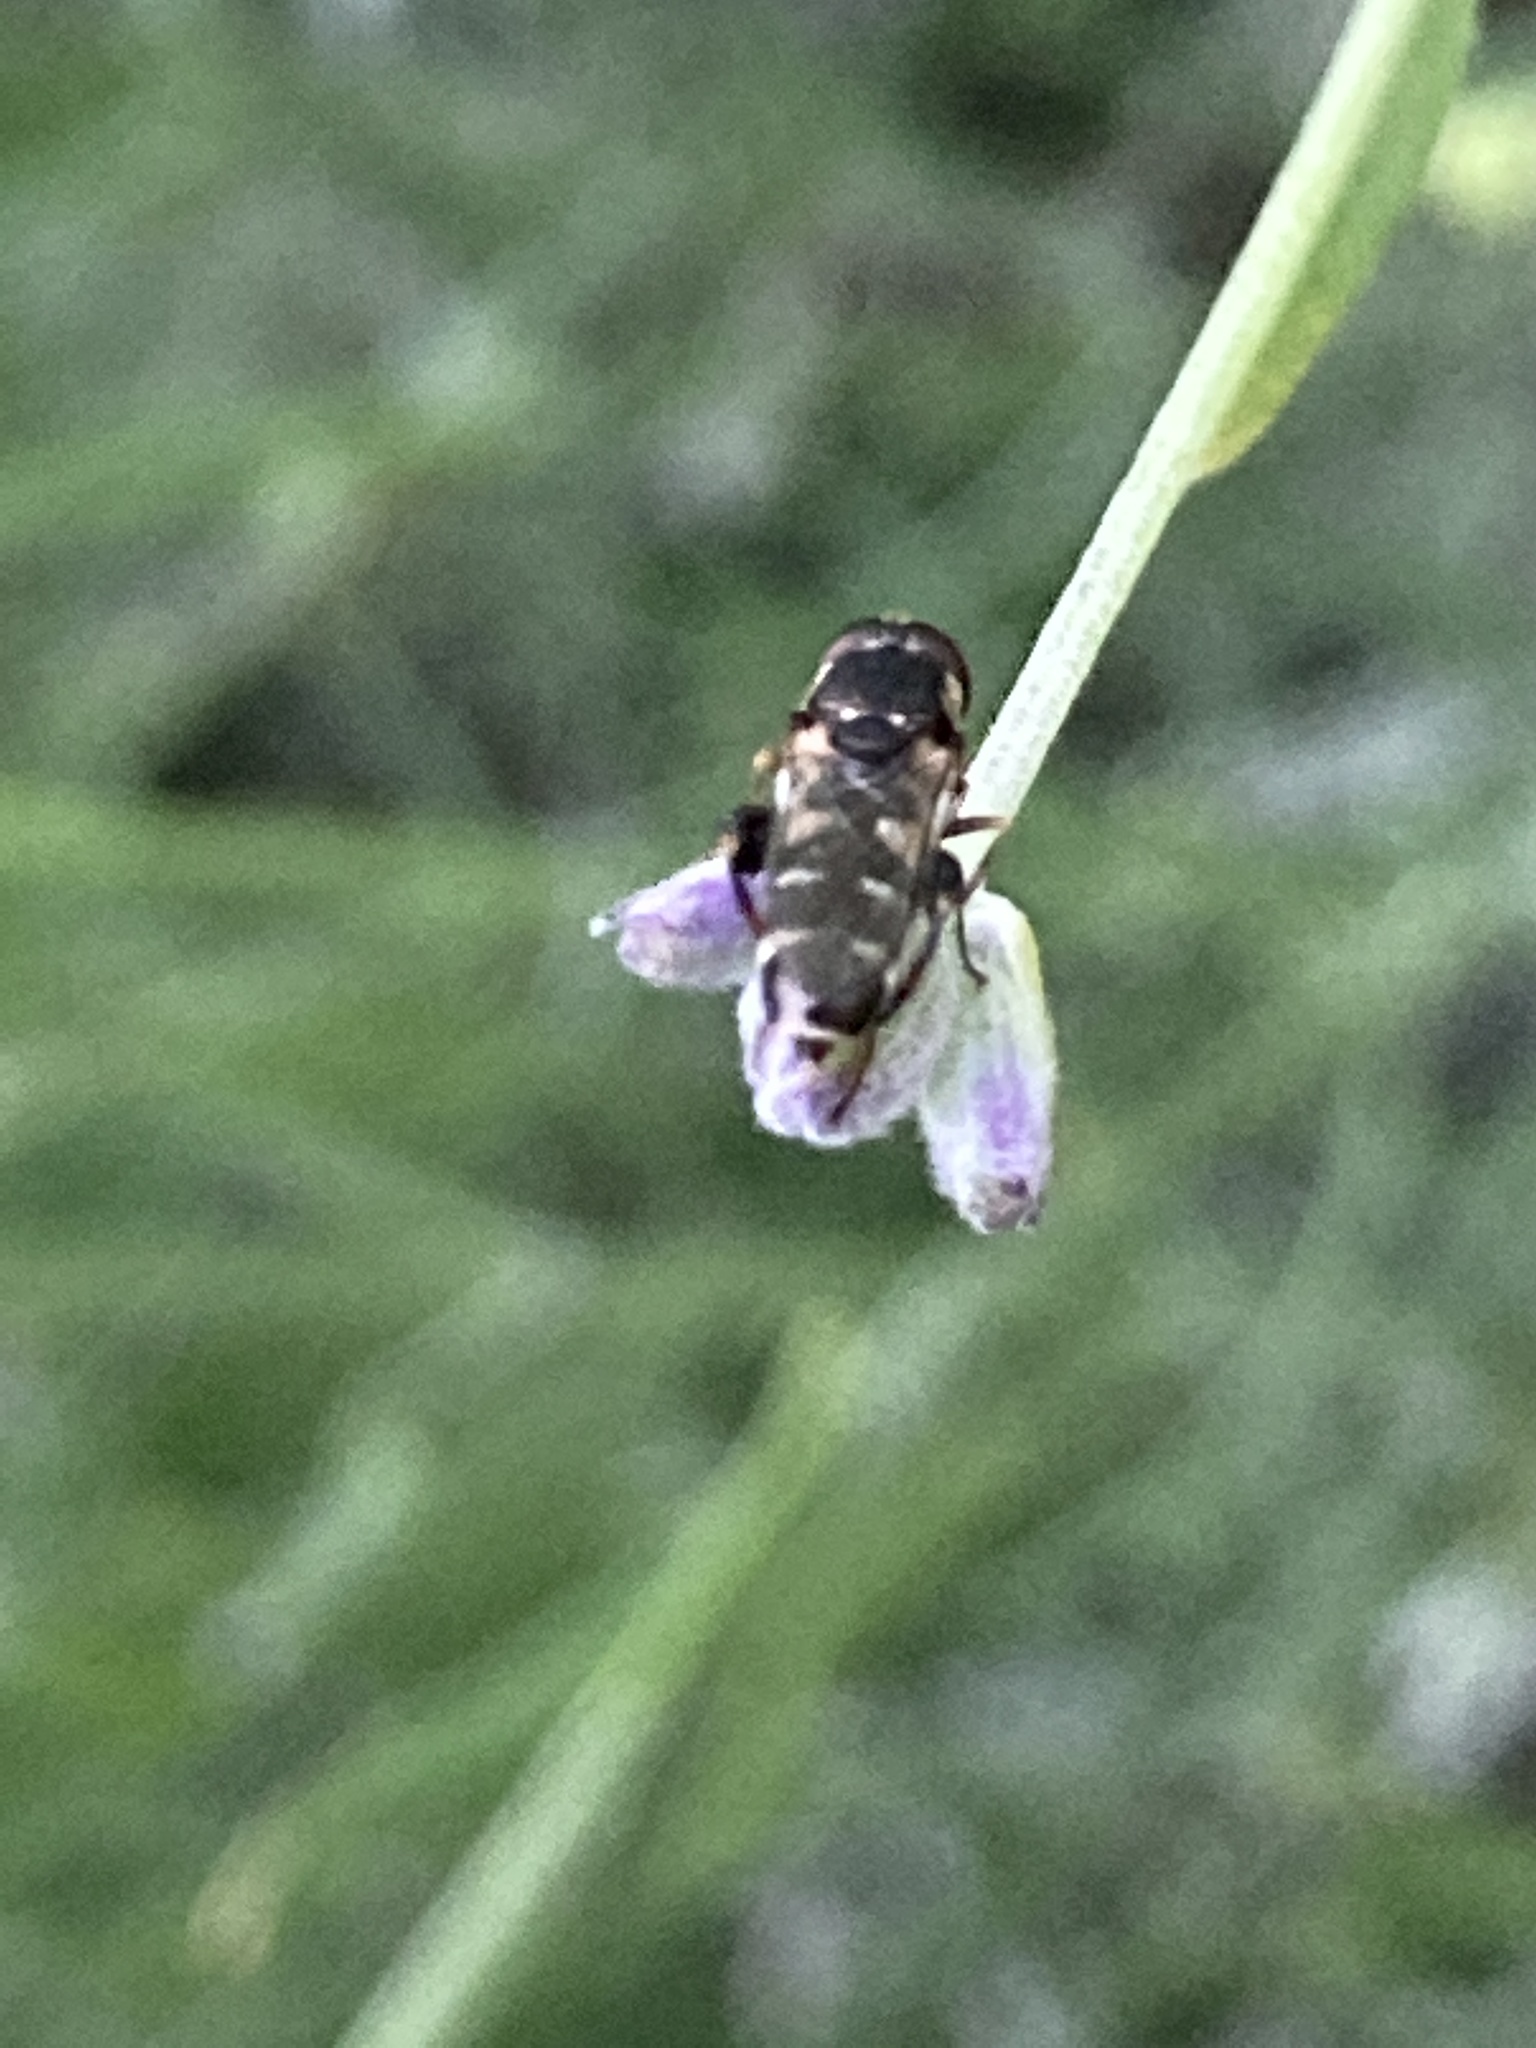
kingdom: Animalia
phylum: Arthropoda
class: Insecta
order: Diptera
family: Syrphidae
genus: Syritta
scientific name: Syritta pipiens
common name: Hover fly
